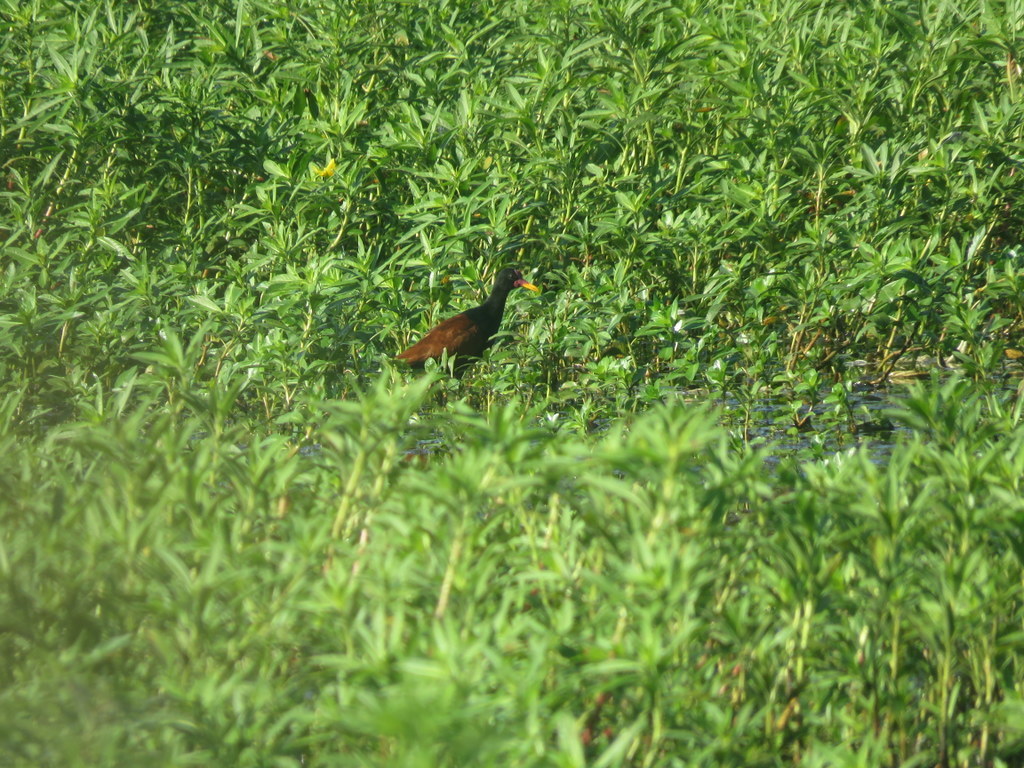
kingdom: Animalia
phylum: Chordata
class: Aves
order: Charadriiformes
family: Jacanidae
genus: Jacana
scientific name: Jacana jacana
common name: Wattled jacana
